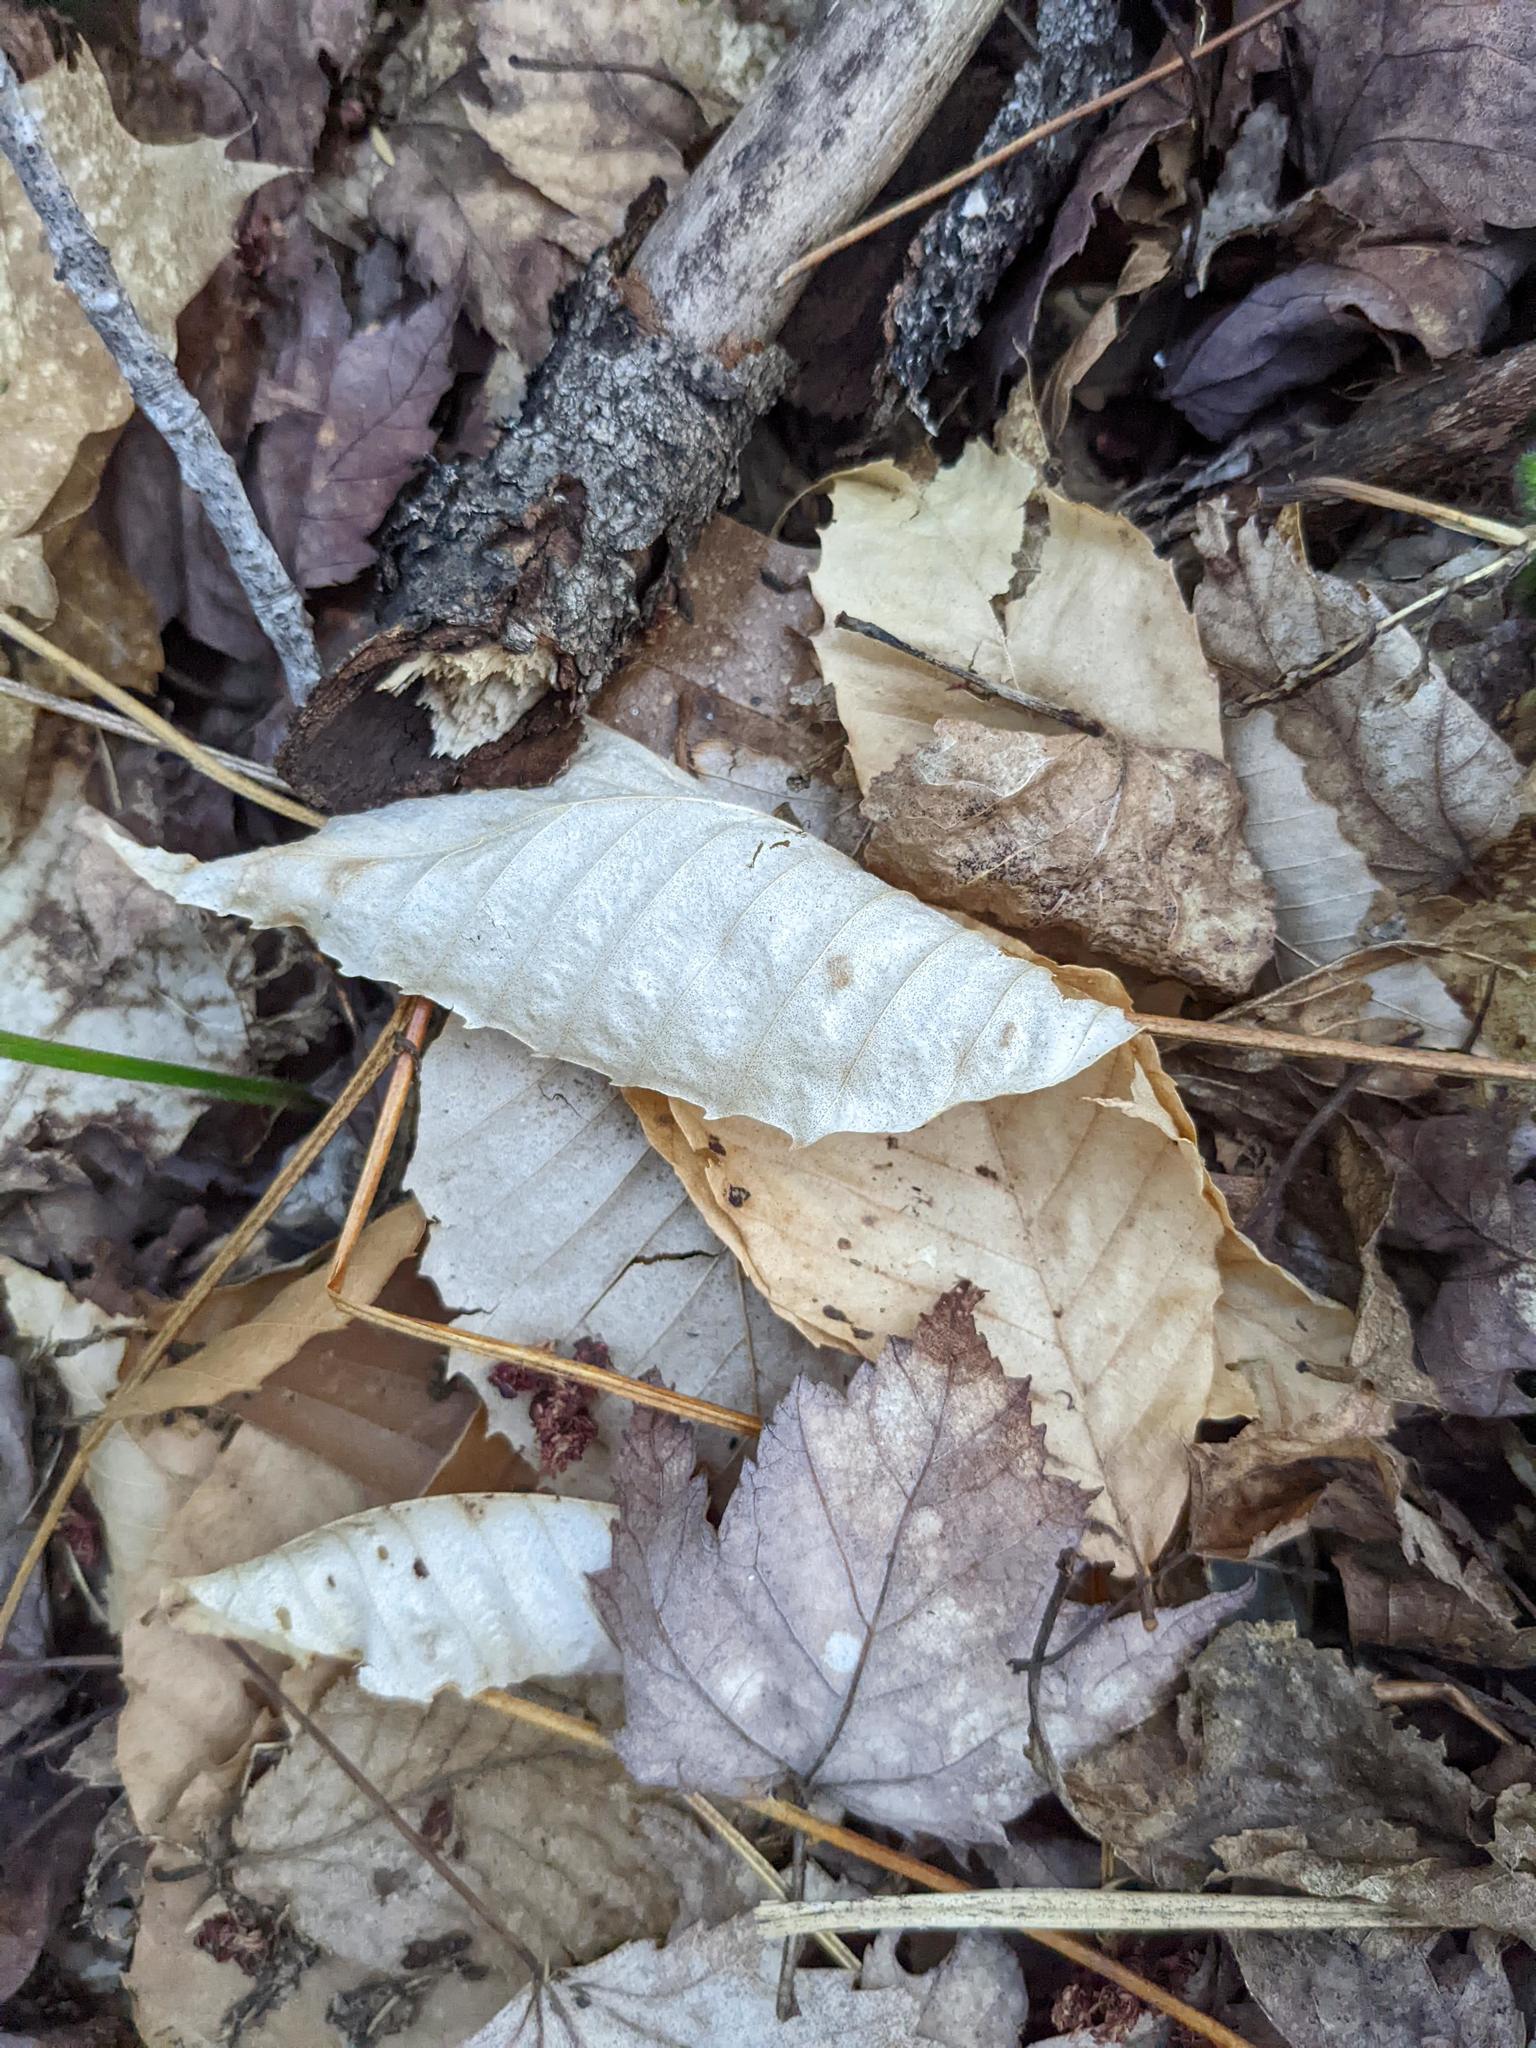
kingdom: Plantae
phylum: Tracheophyta
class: Magnoliopsida
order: Fagales
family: Fagaceae
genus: Fagus
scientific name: Fagus grandifolia
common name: American beech
